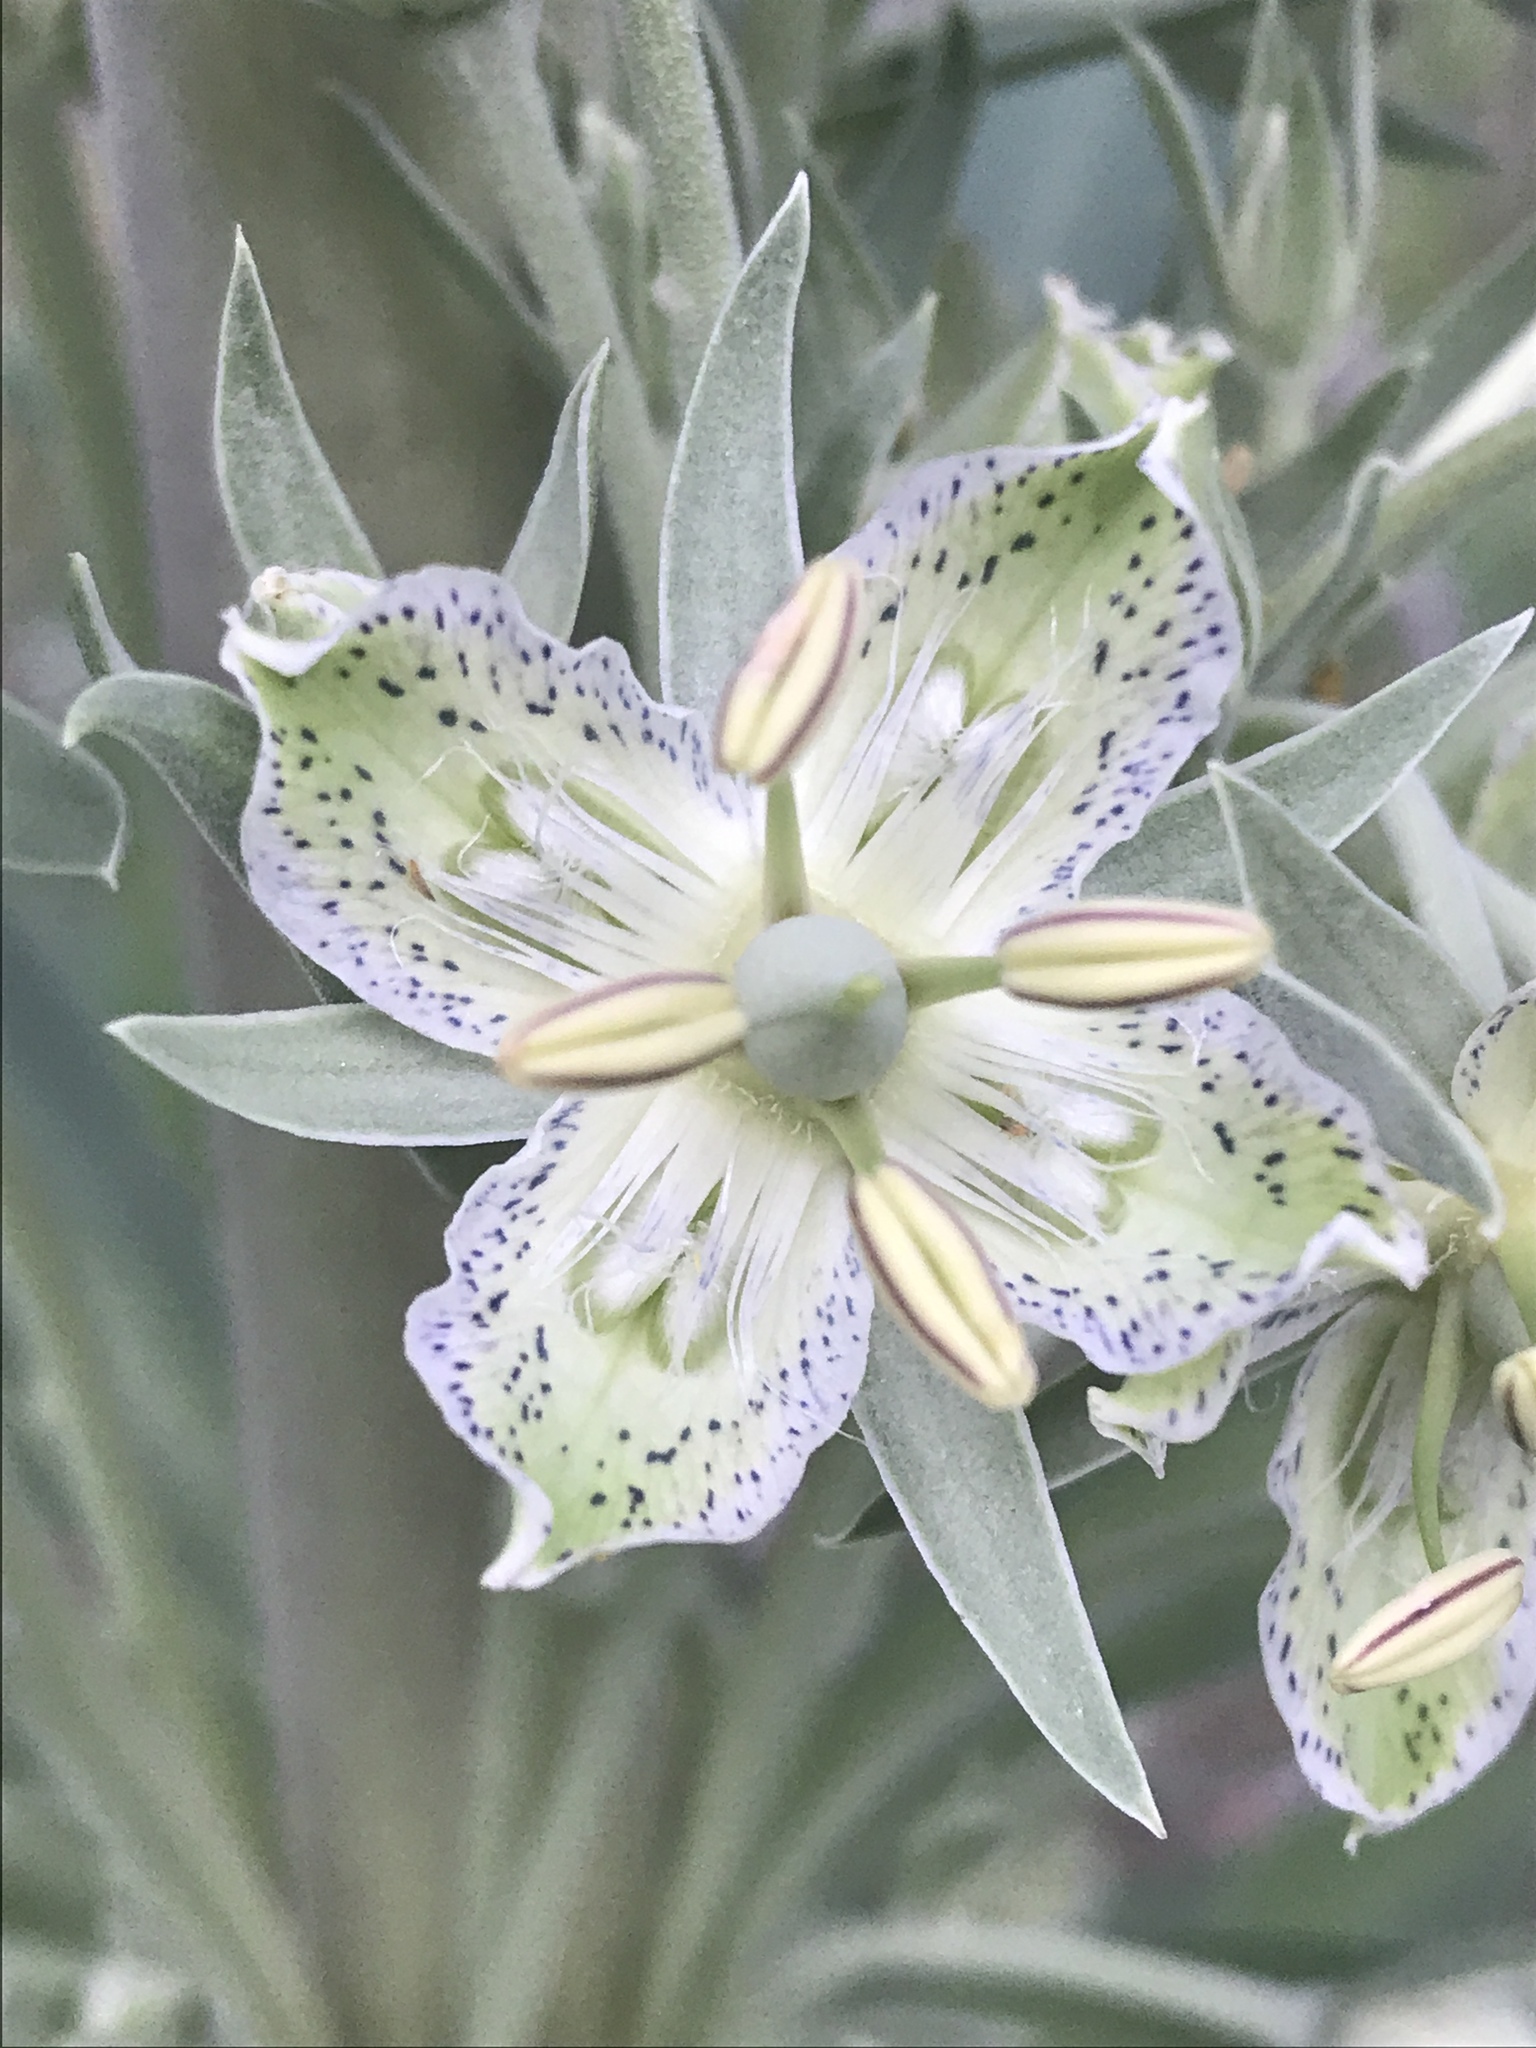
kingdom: Plantae
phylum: Tracheophyta
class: Magnoliopsida
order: Gentianales
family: Gentianaceae
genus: Frasera
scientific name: Frasera speciosa
